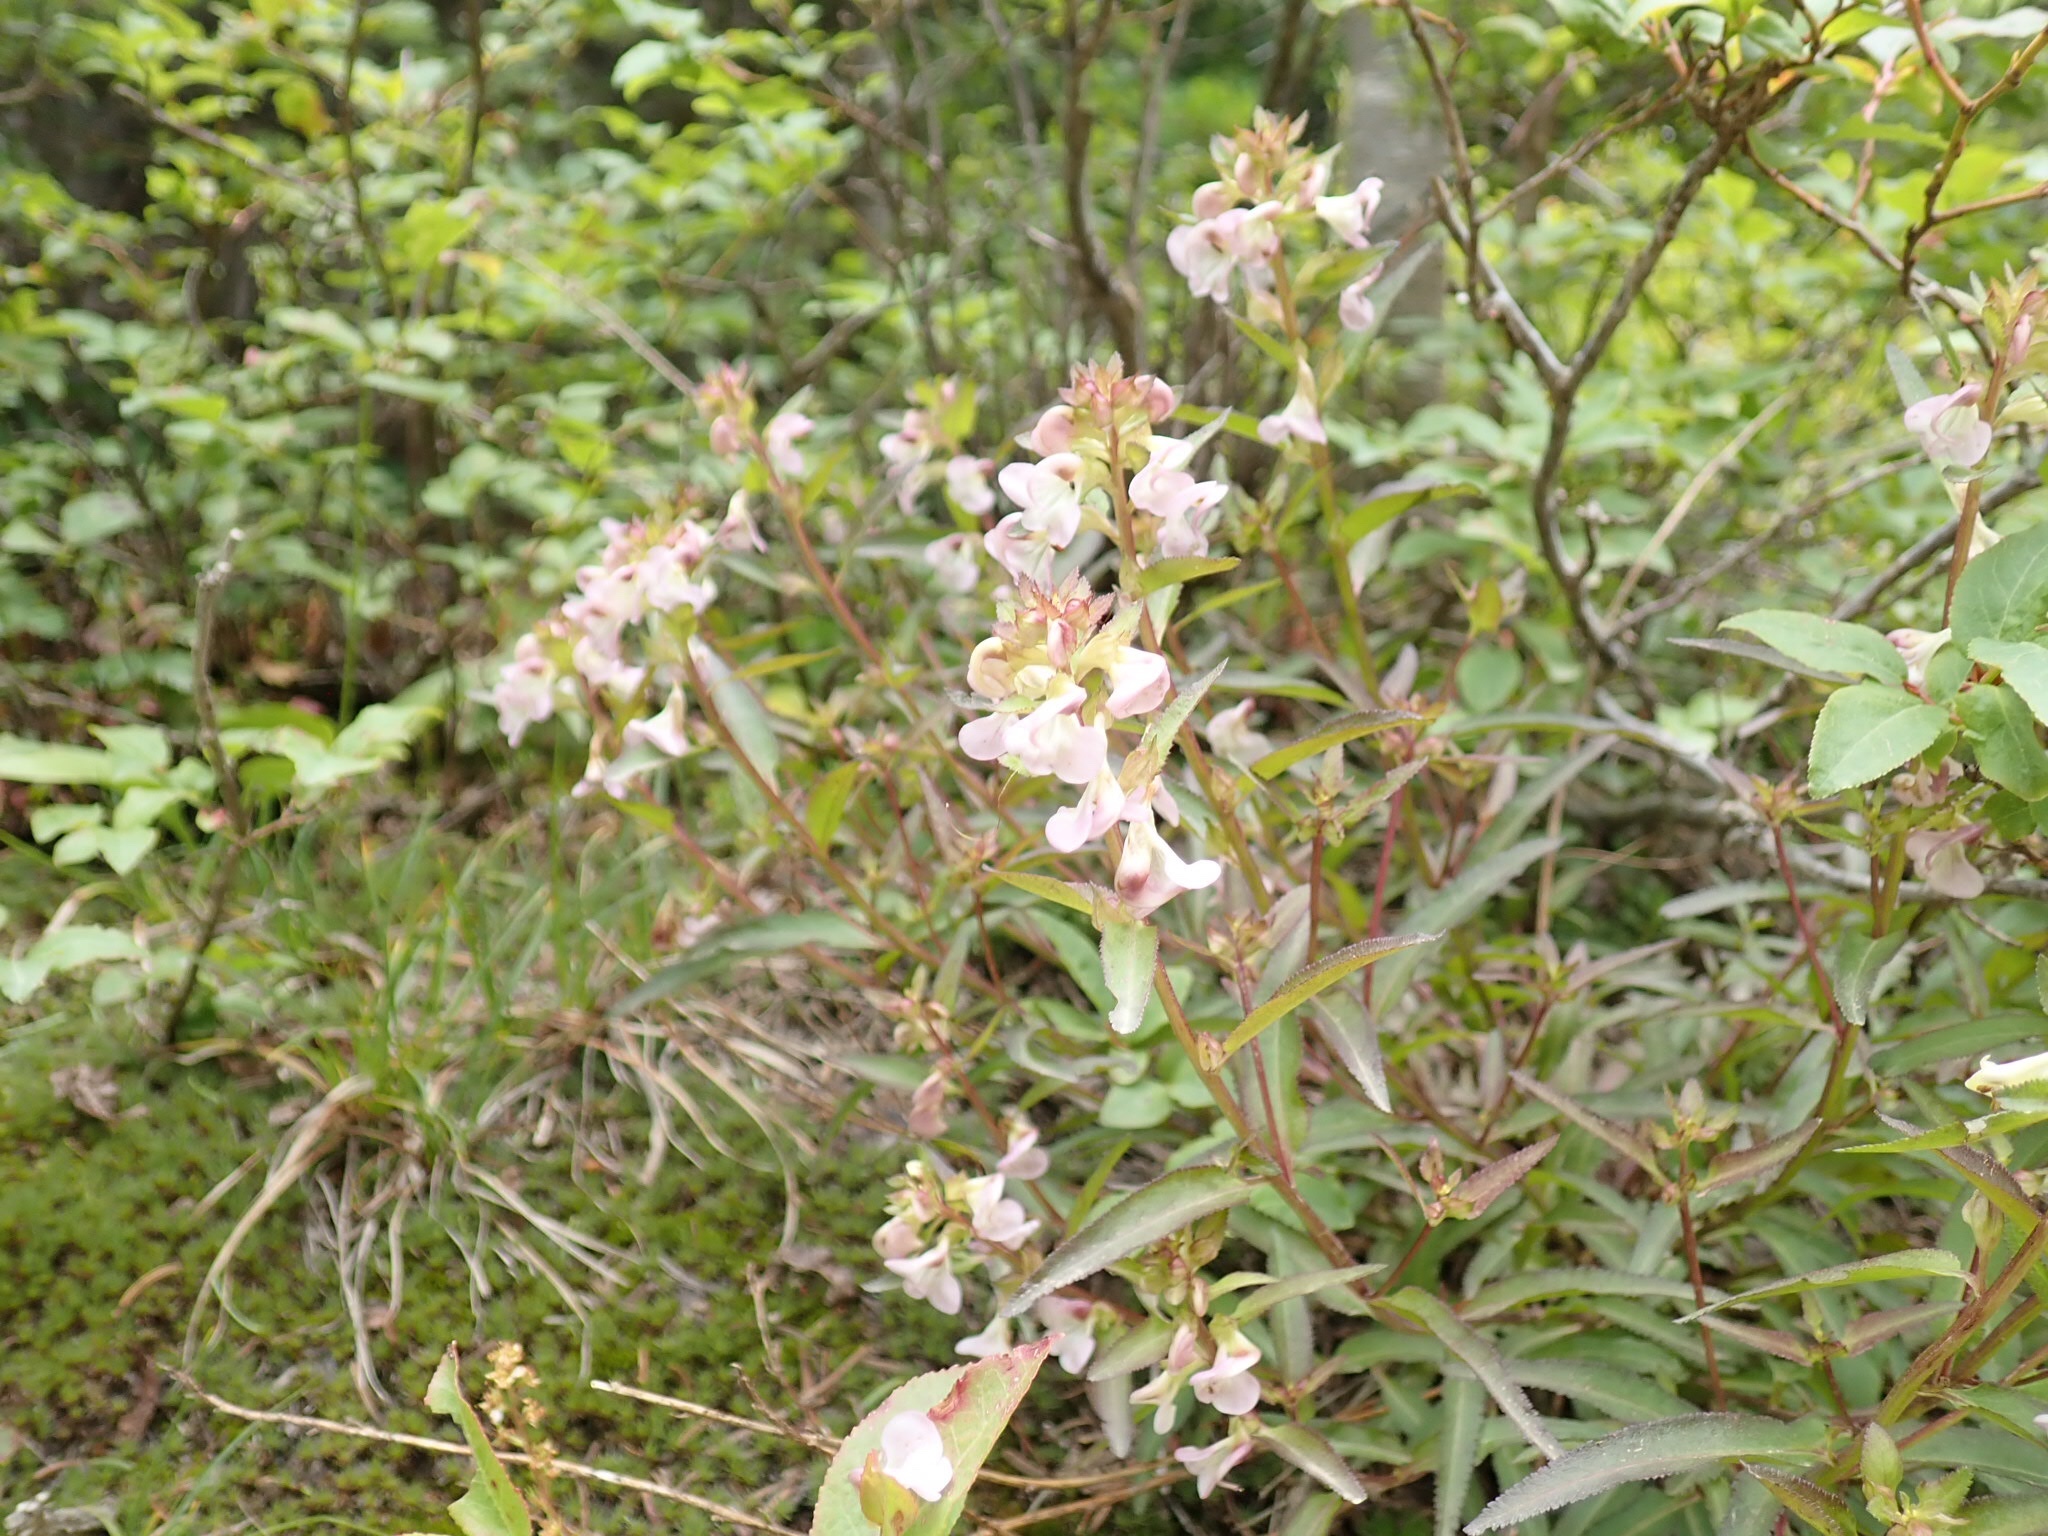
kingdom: Plantae
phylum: Tracheophyta
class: Magnoliopsida
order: Lamiales
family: Orobanchaceae
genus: Pedicularis
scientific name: Pedicularis racemosa
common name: Leafy lousewort
